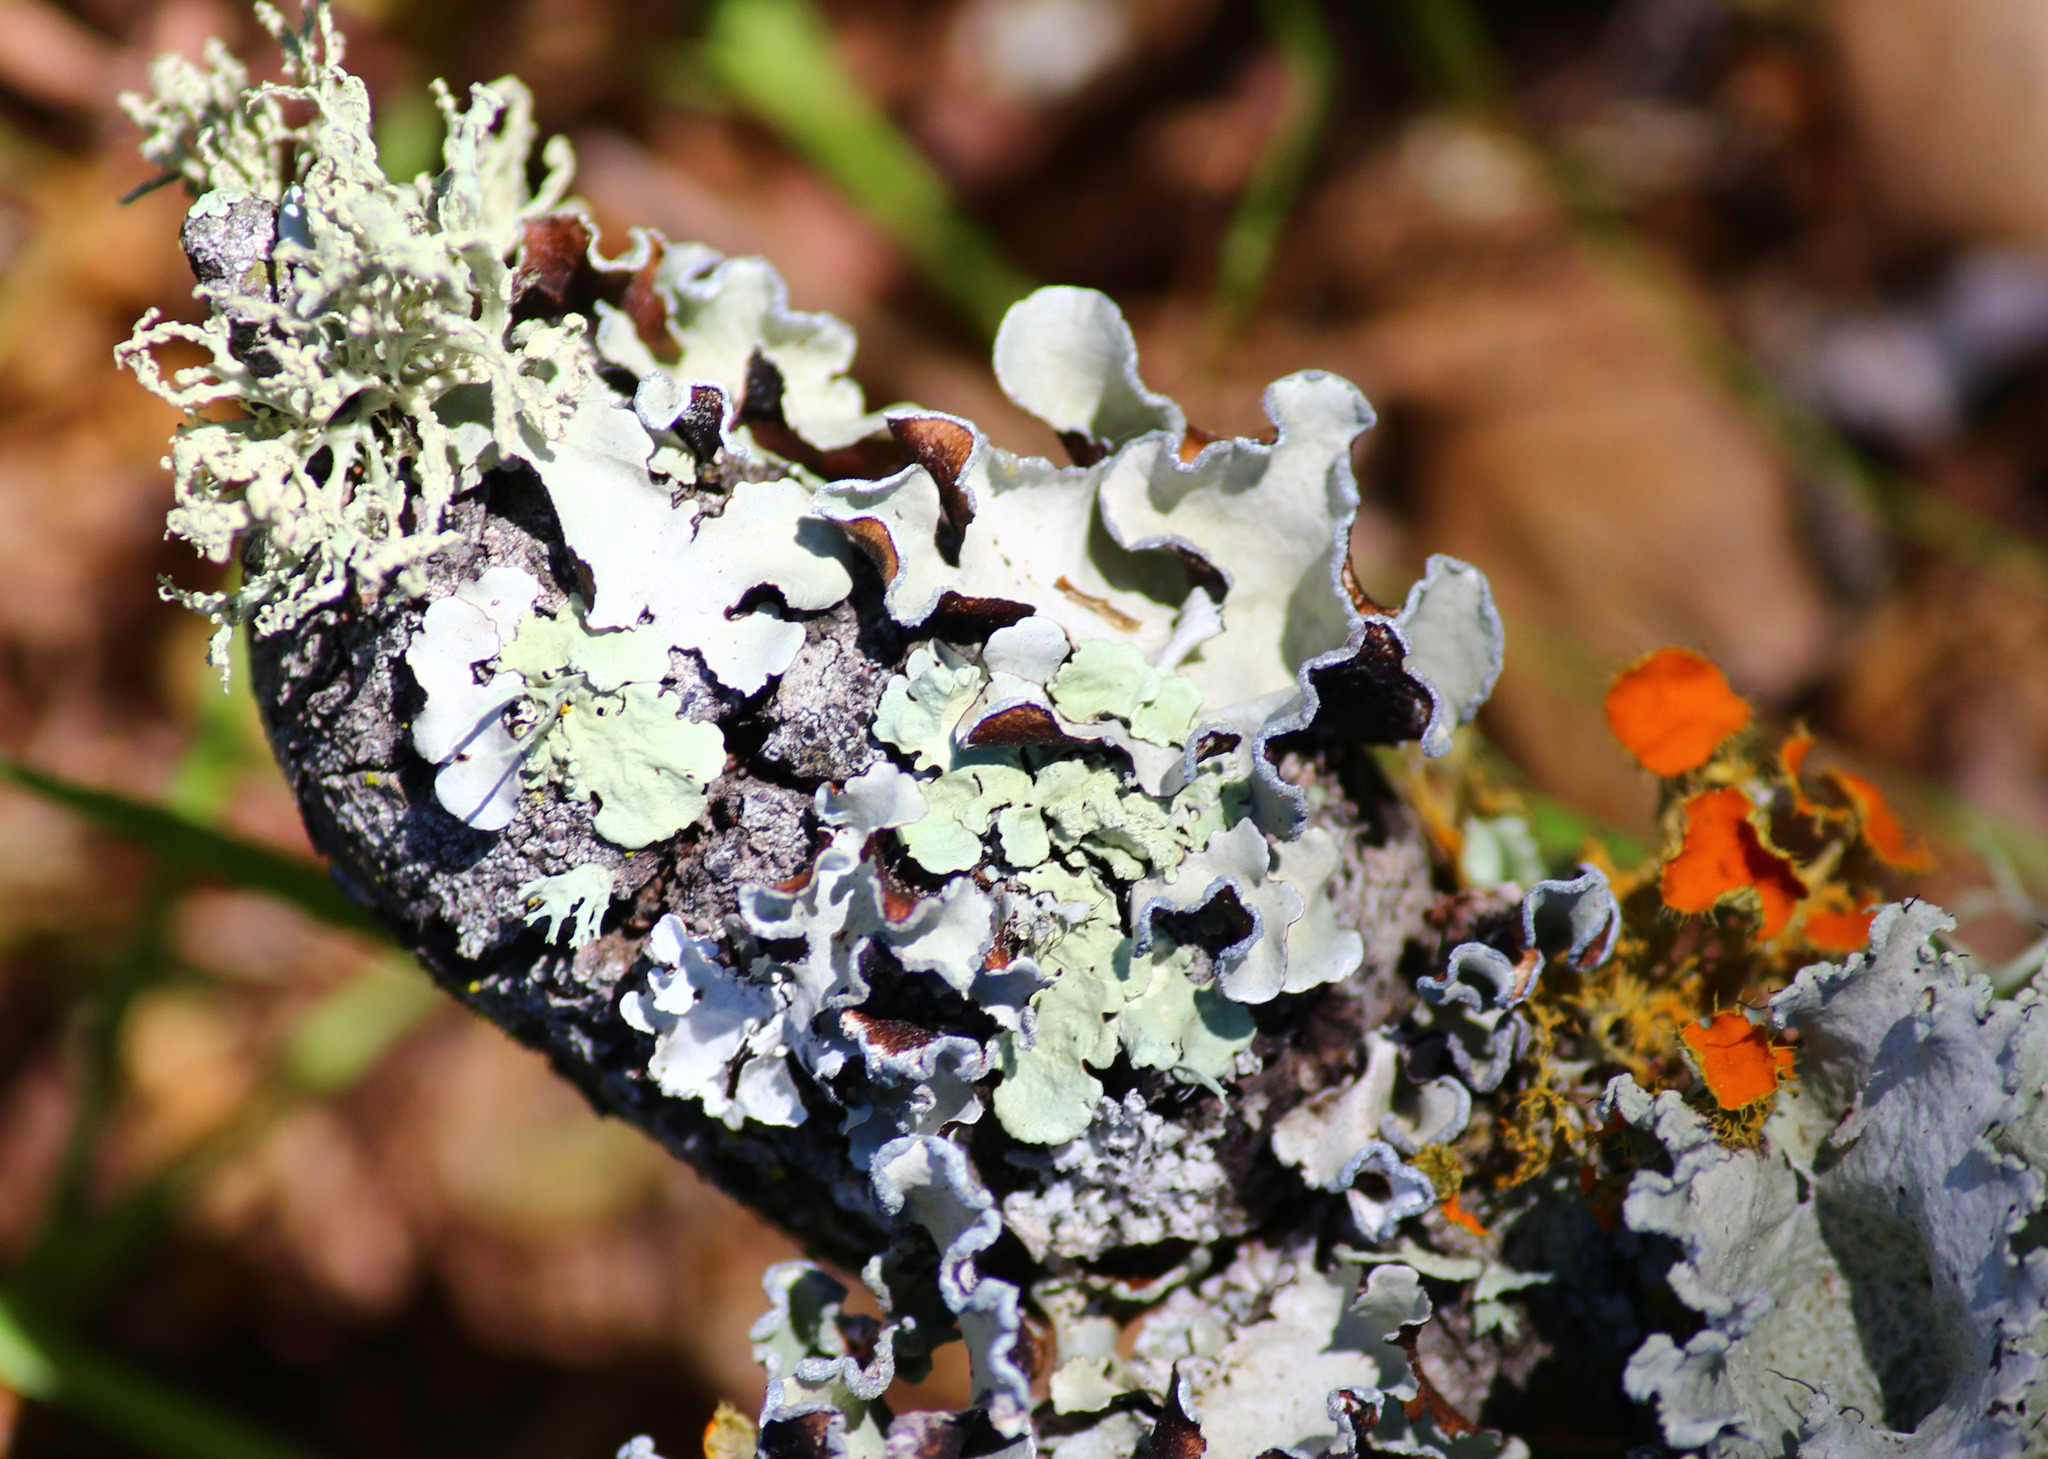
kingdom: Fungi
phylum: Ascomycota
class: Lecanoromycetes
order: Lecanorales
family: Parmeliaceae
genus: Parmotrema
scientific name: Parmotrema stuppeum
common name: Powder-edged ruffle lichen
